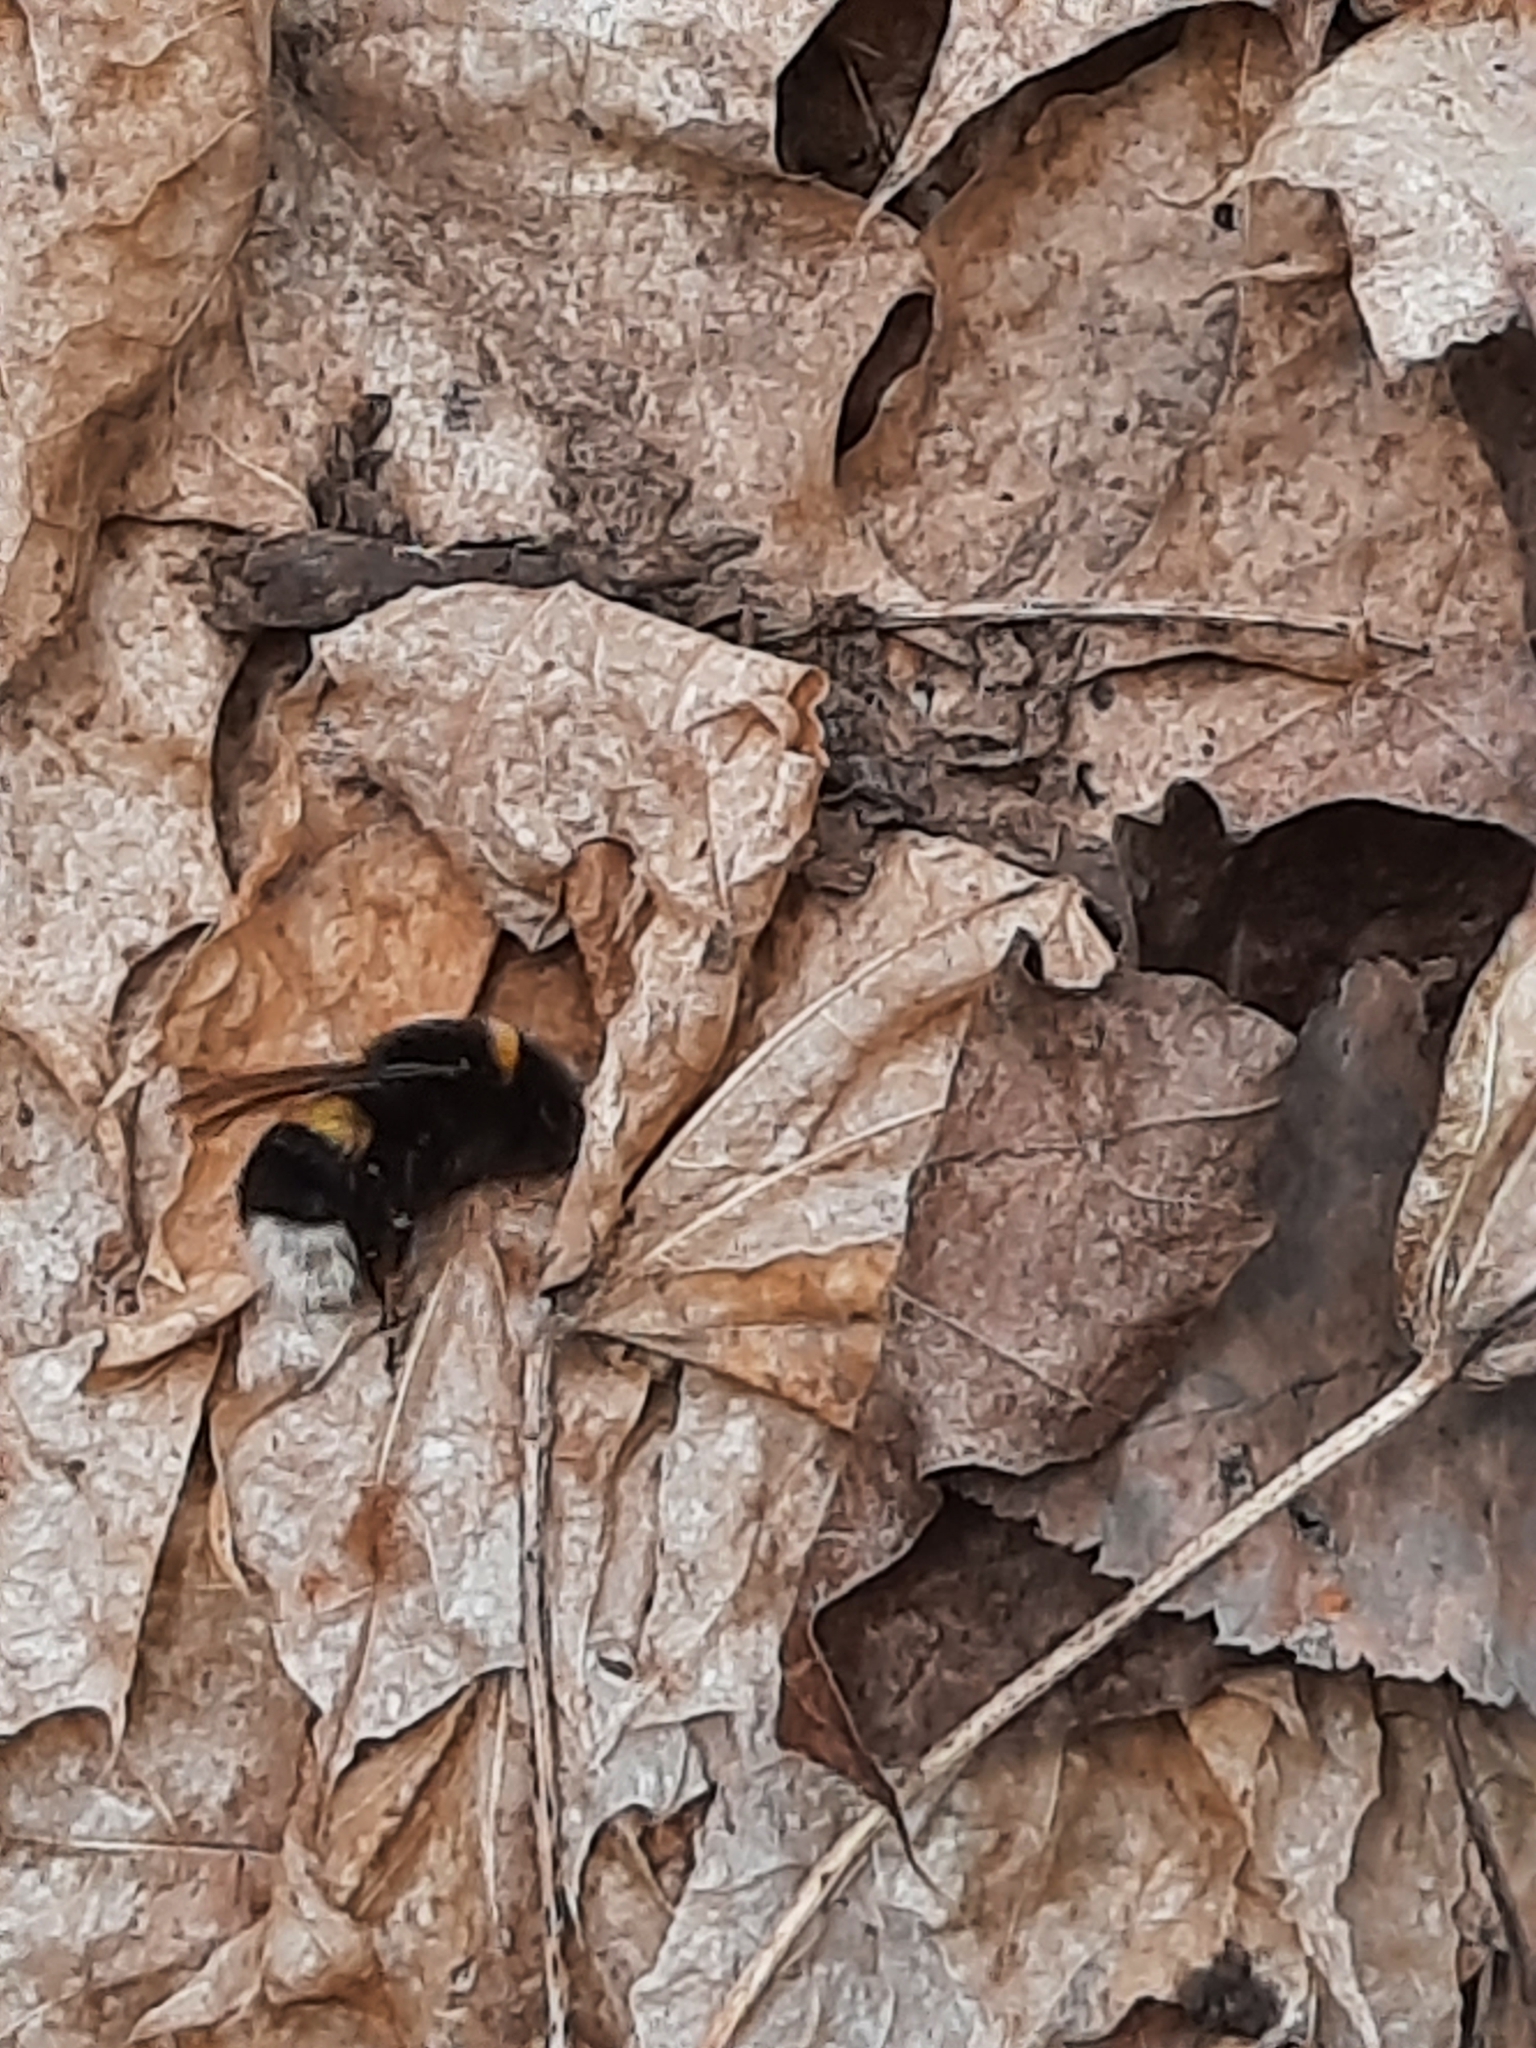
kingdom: Animalia
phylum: Arthropoda
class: Insecta
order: Hymenoptera
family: Apidae
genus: Bombus
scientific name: Bombus
